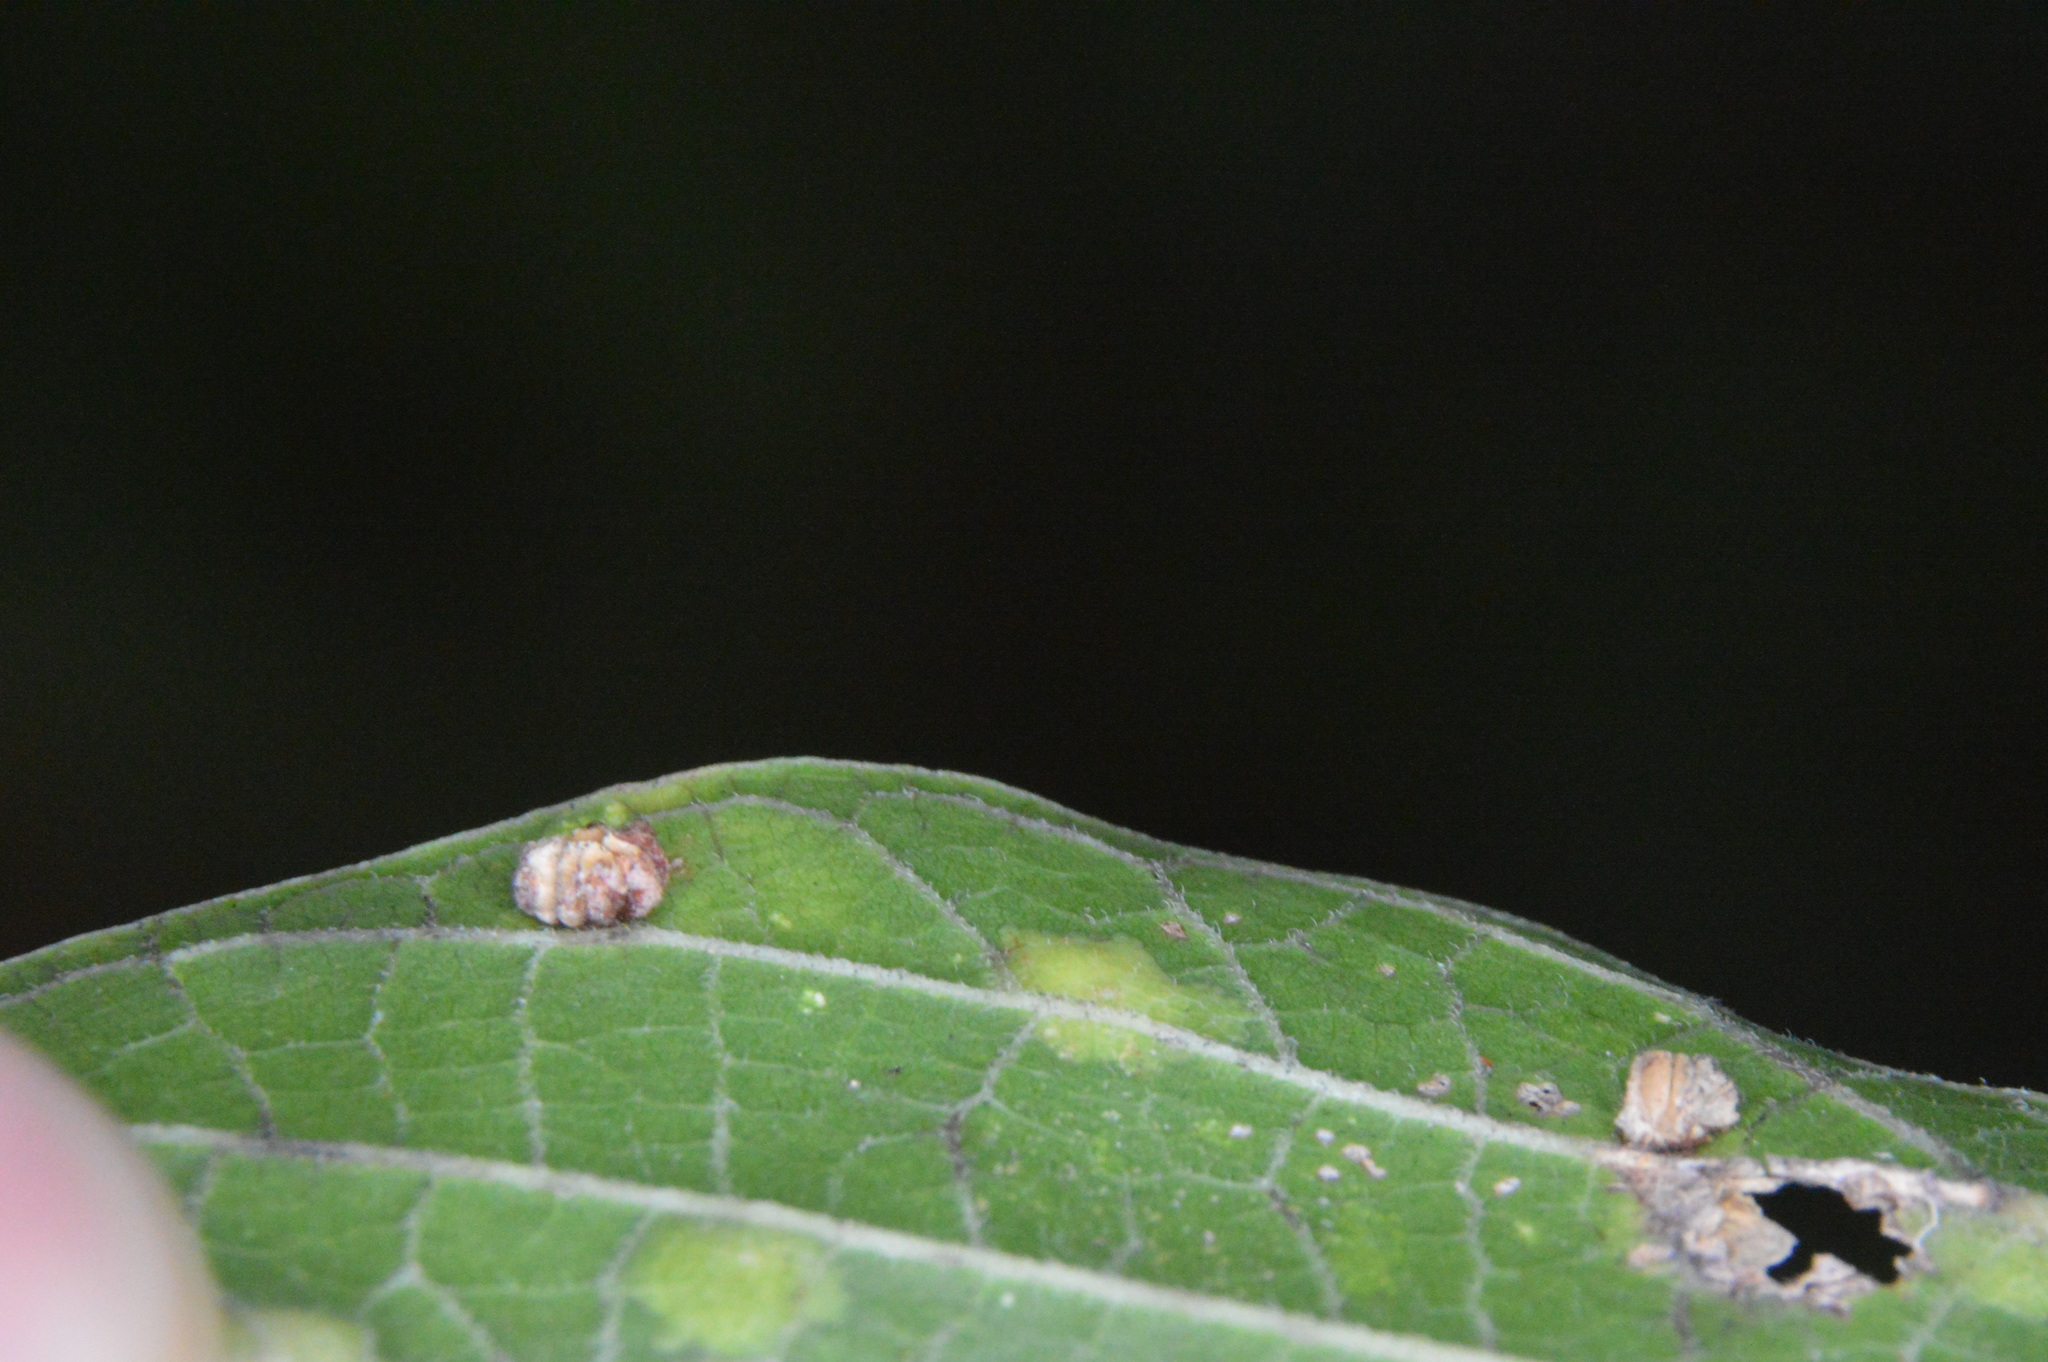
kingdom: Animalia
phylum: Arthropoda
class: Insecta
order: Diptera
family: Cecidomyiidae
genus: Celticecis
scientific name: Celticecis capsularis
